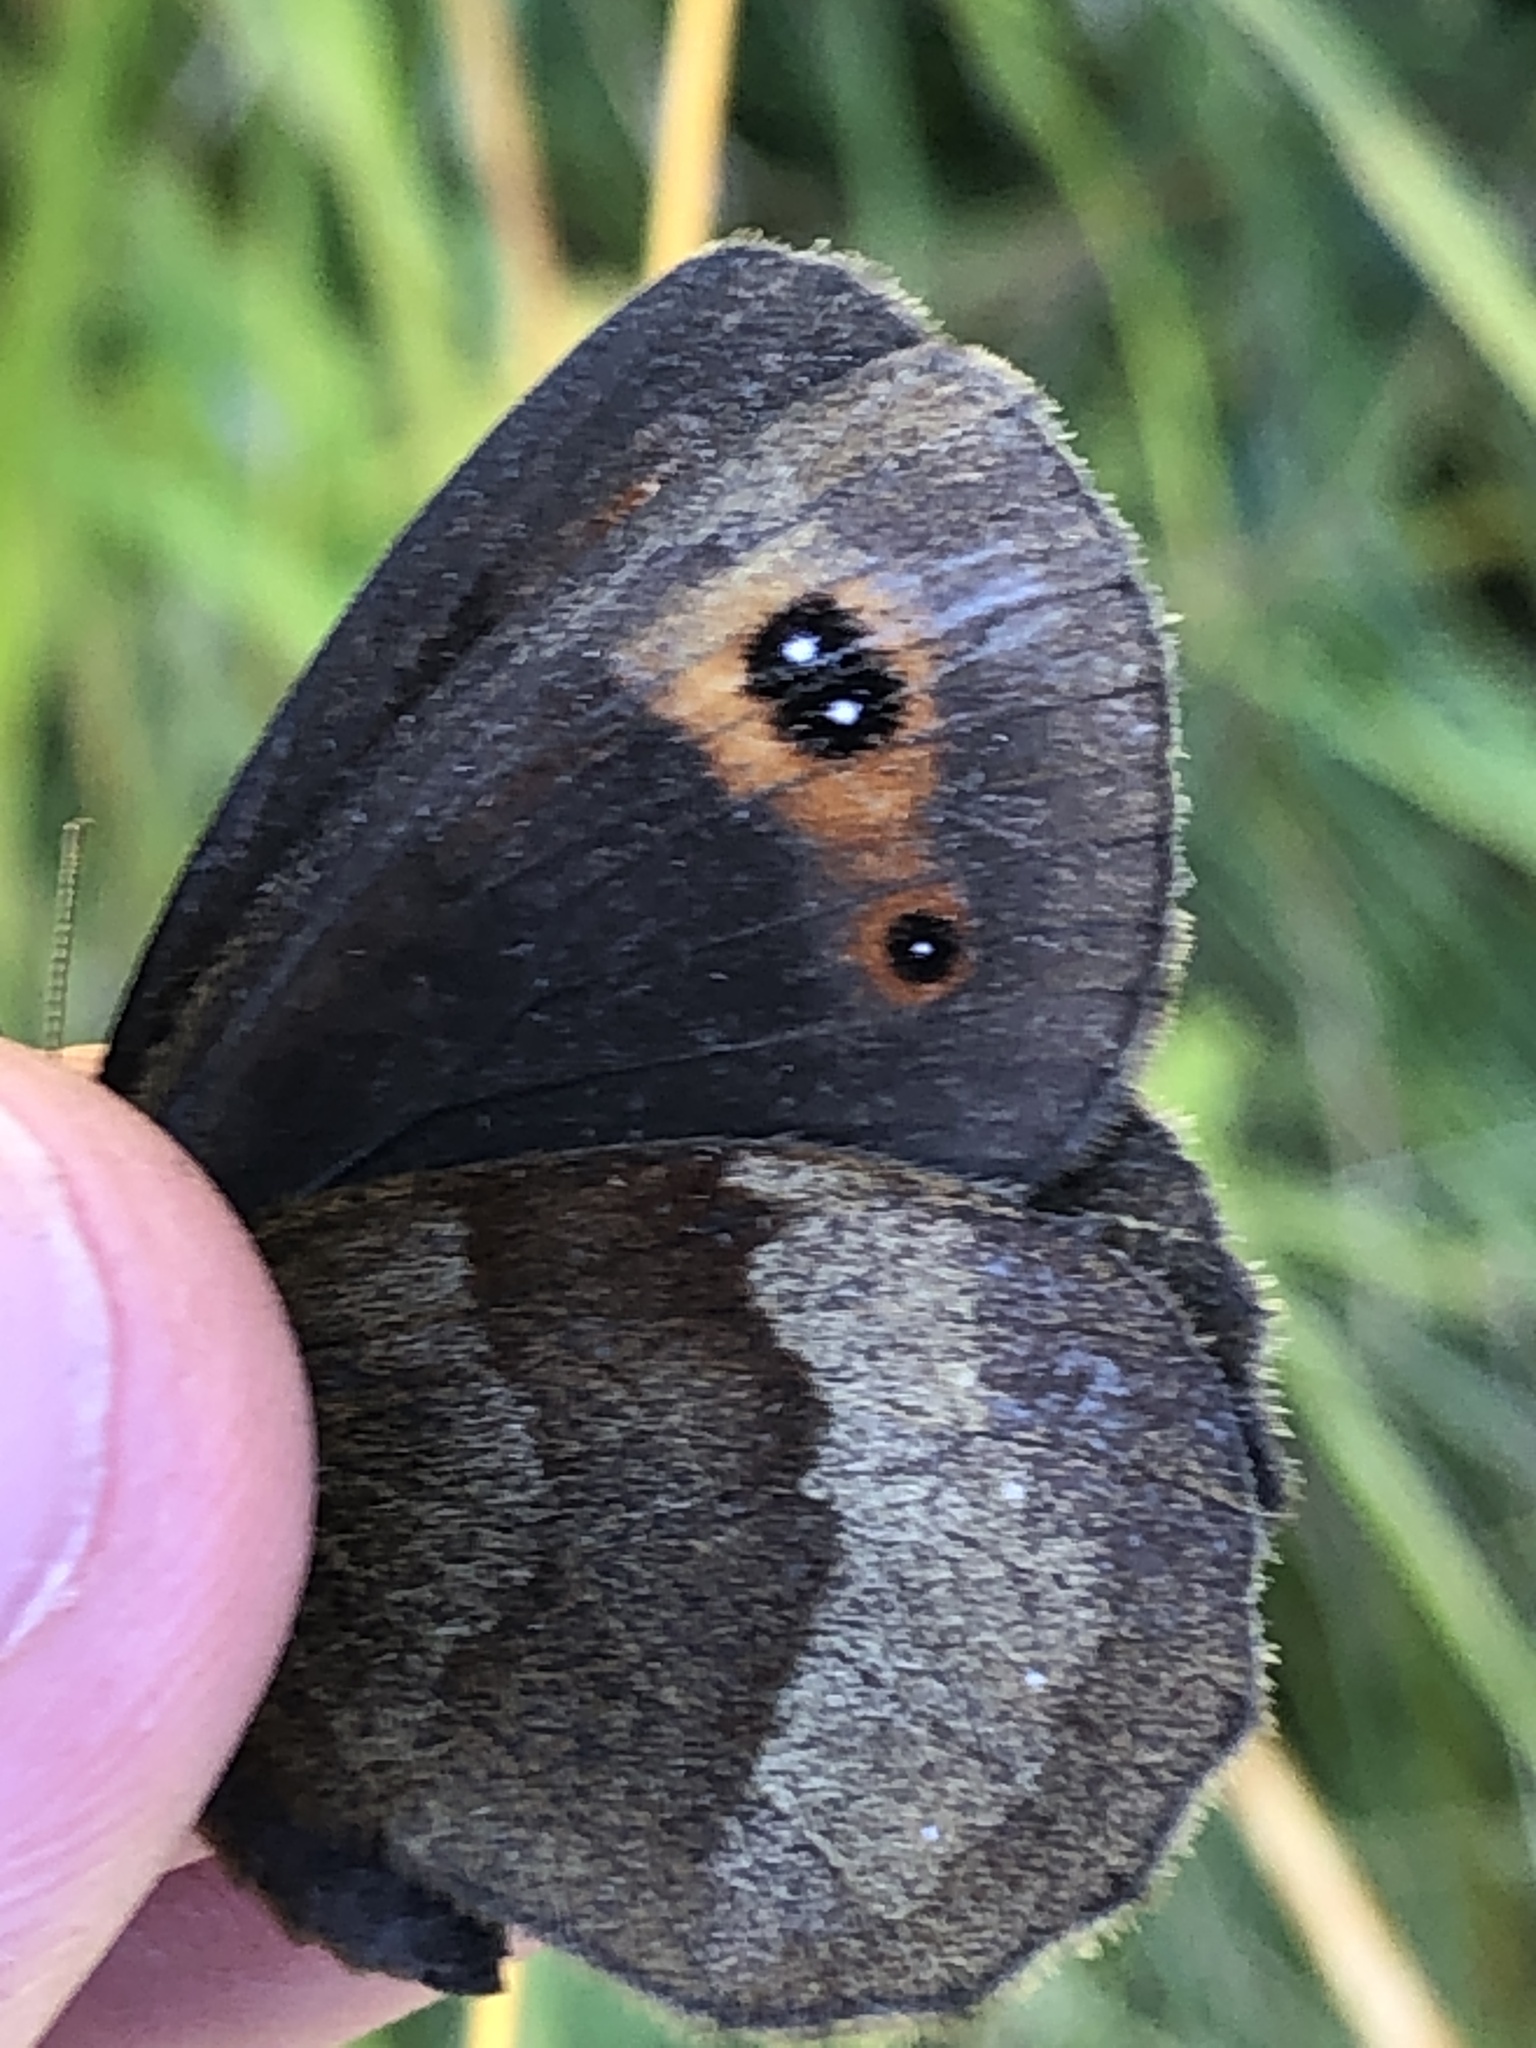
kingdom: Animalia
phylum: Arthropoda
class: Insecta
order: Lepidoptera
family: Nymphalidae
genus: Erebia
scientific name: Erebia aethiops
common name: Scotch argus
